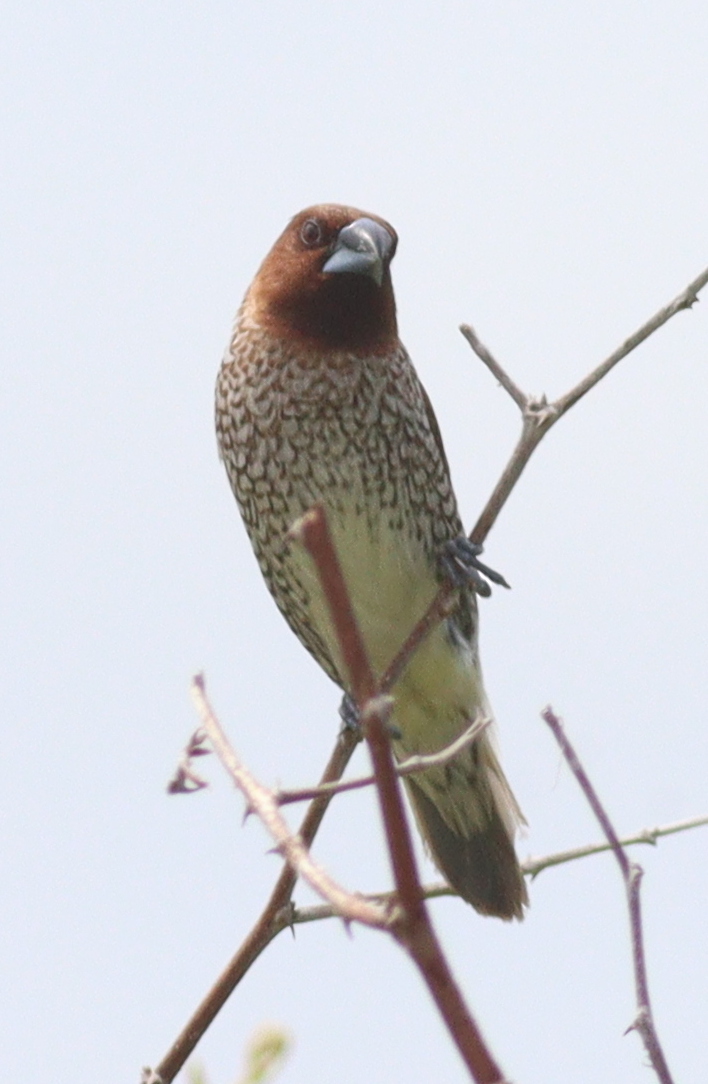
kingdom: Animalia
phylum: Chordata
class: Aves
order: Passeriformes
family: Estrildidae
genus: Lonchura
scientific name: Lonchura punctulata
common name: Scaly-breasted munia
